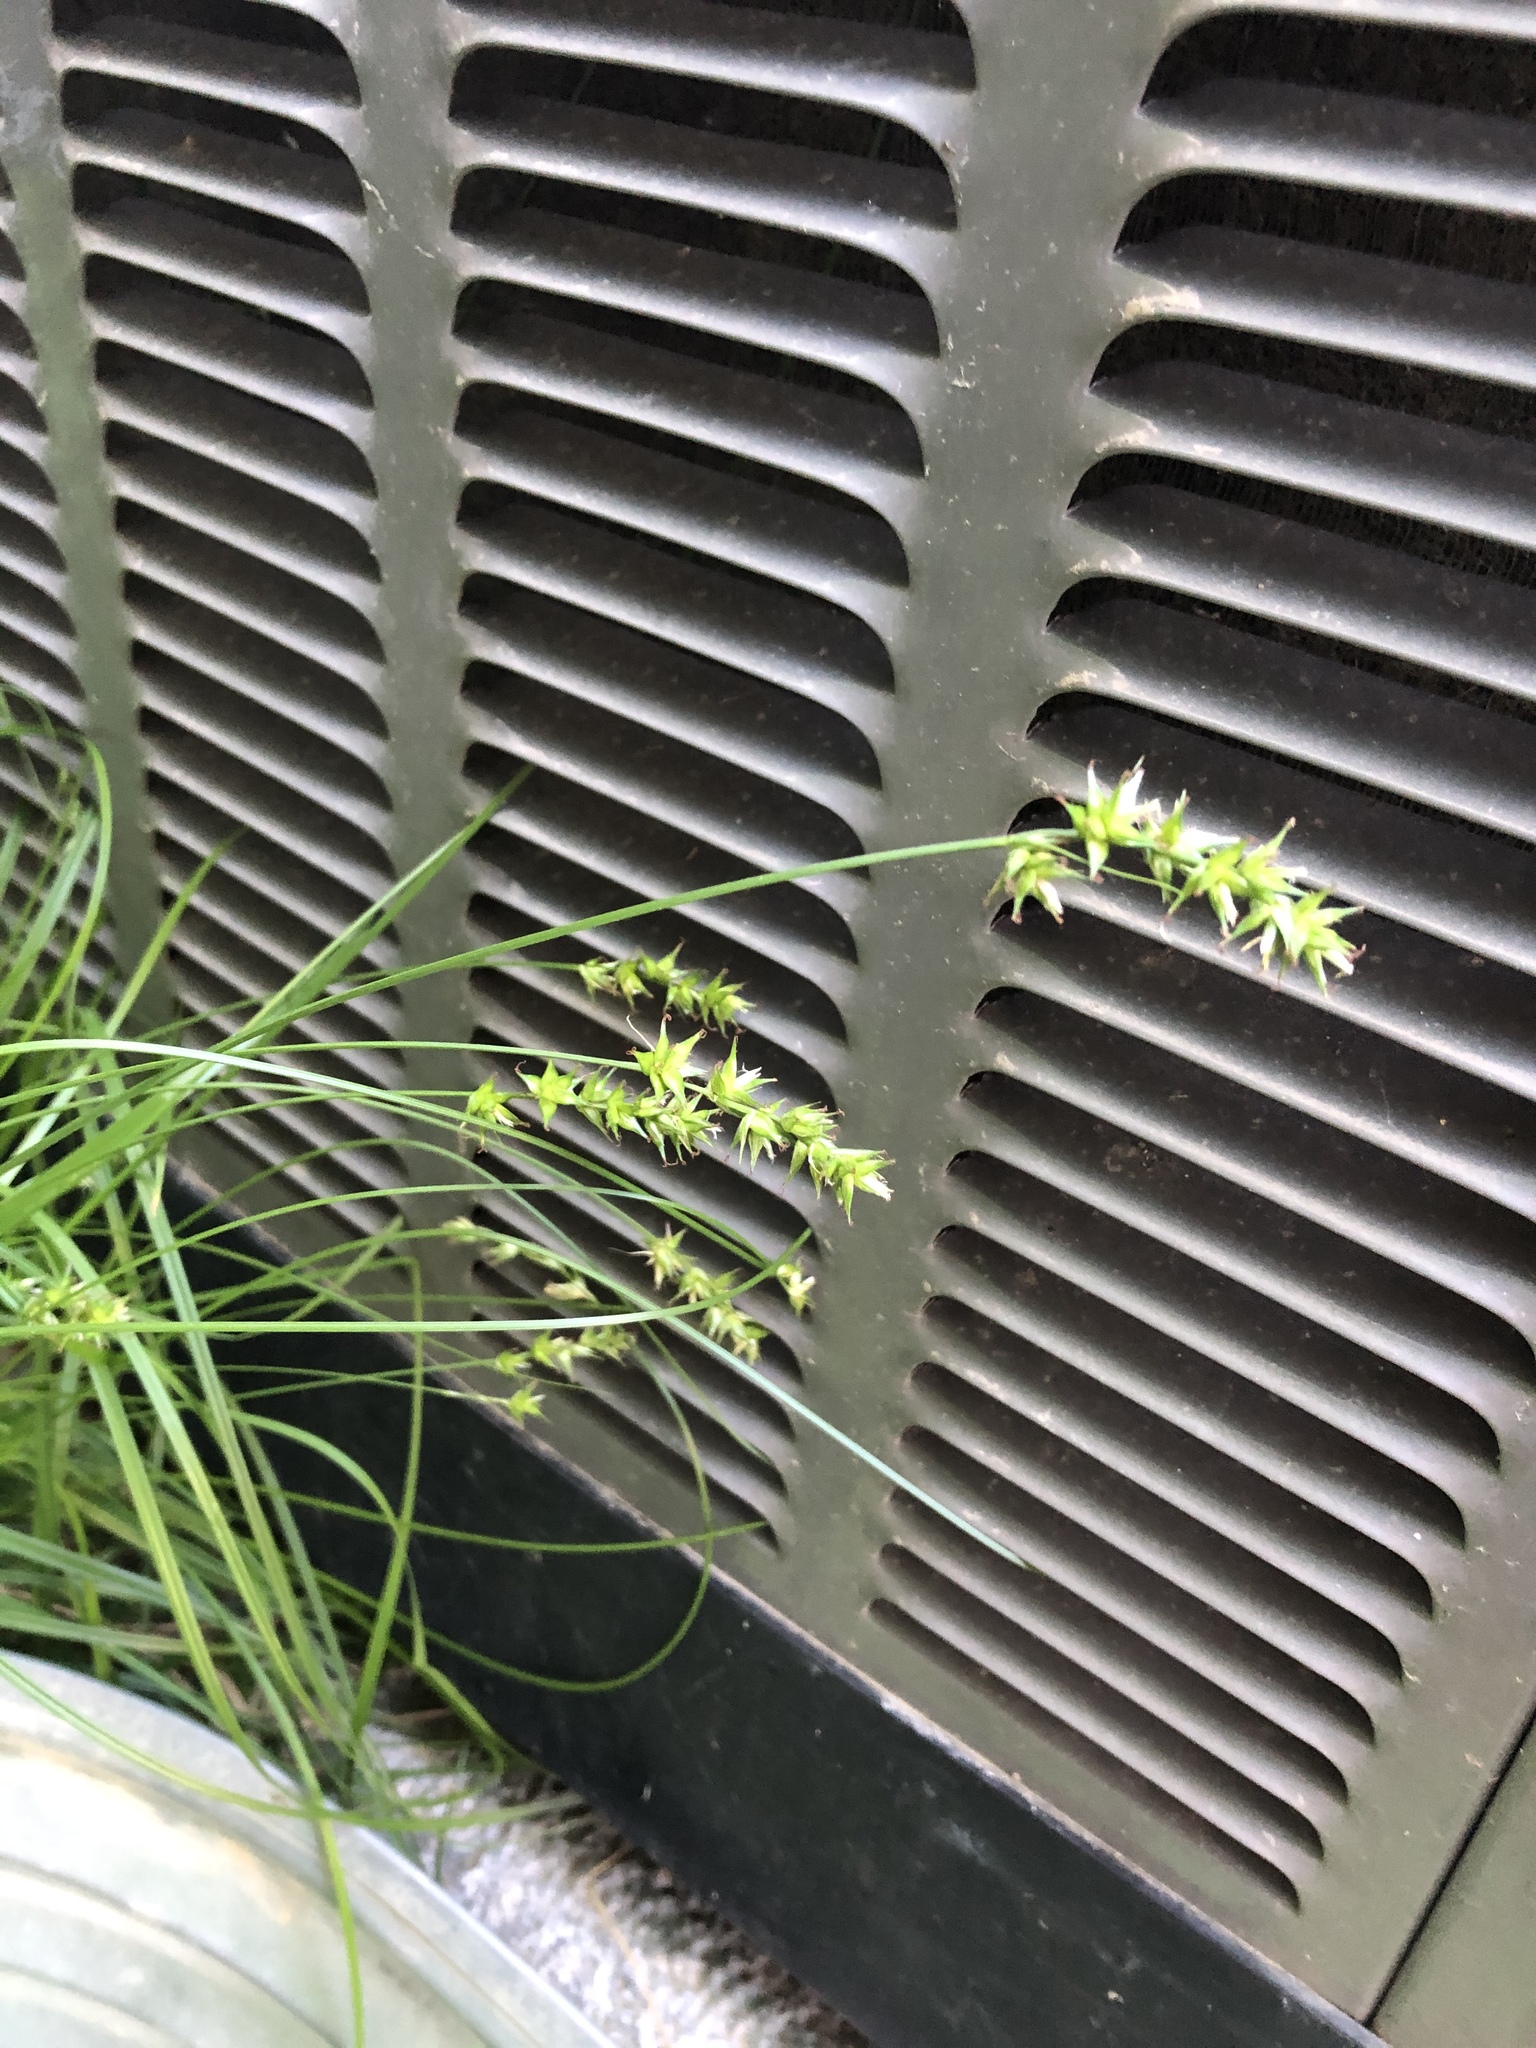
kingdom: Plantae
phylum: Tracheophyta
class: Liliopsida
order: Poales
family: Cyperaceae
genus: Carex
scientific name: Carex spicata
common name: Spiked sedge
